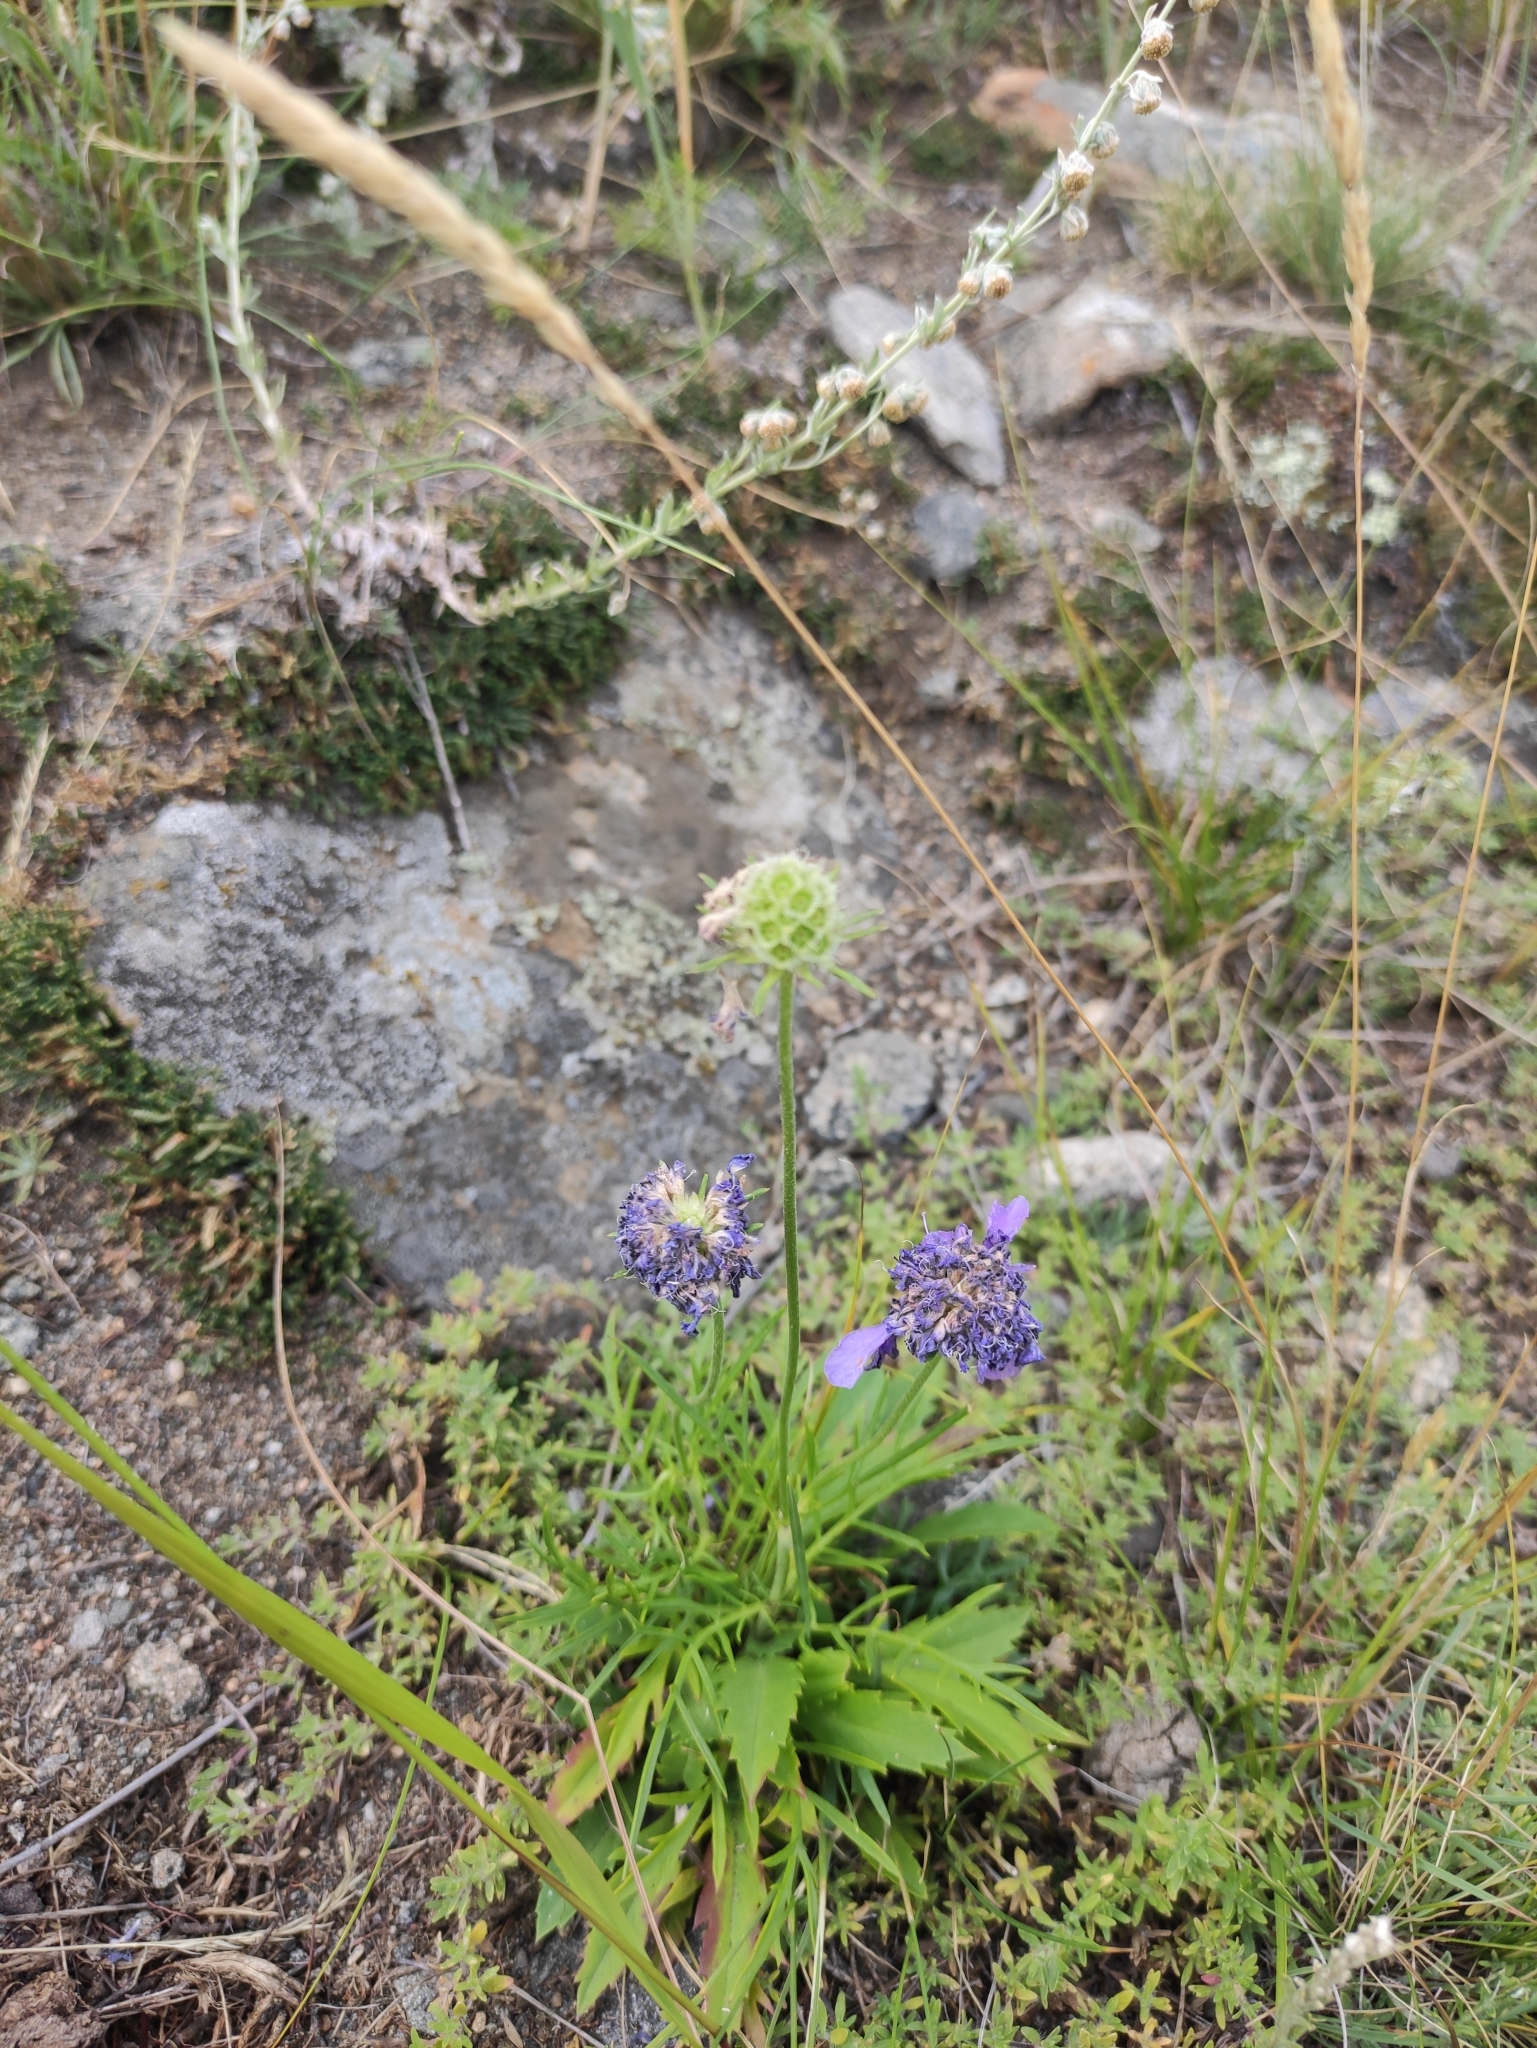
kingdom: Plantae
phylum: Tracheophyta
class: Magnoliopsida
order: Dipsacales
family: Caprifoliaceae
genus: Scabiosa
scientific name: Scabiosa comosa
